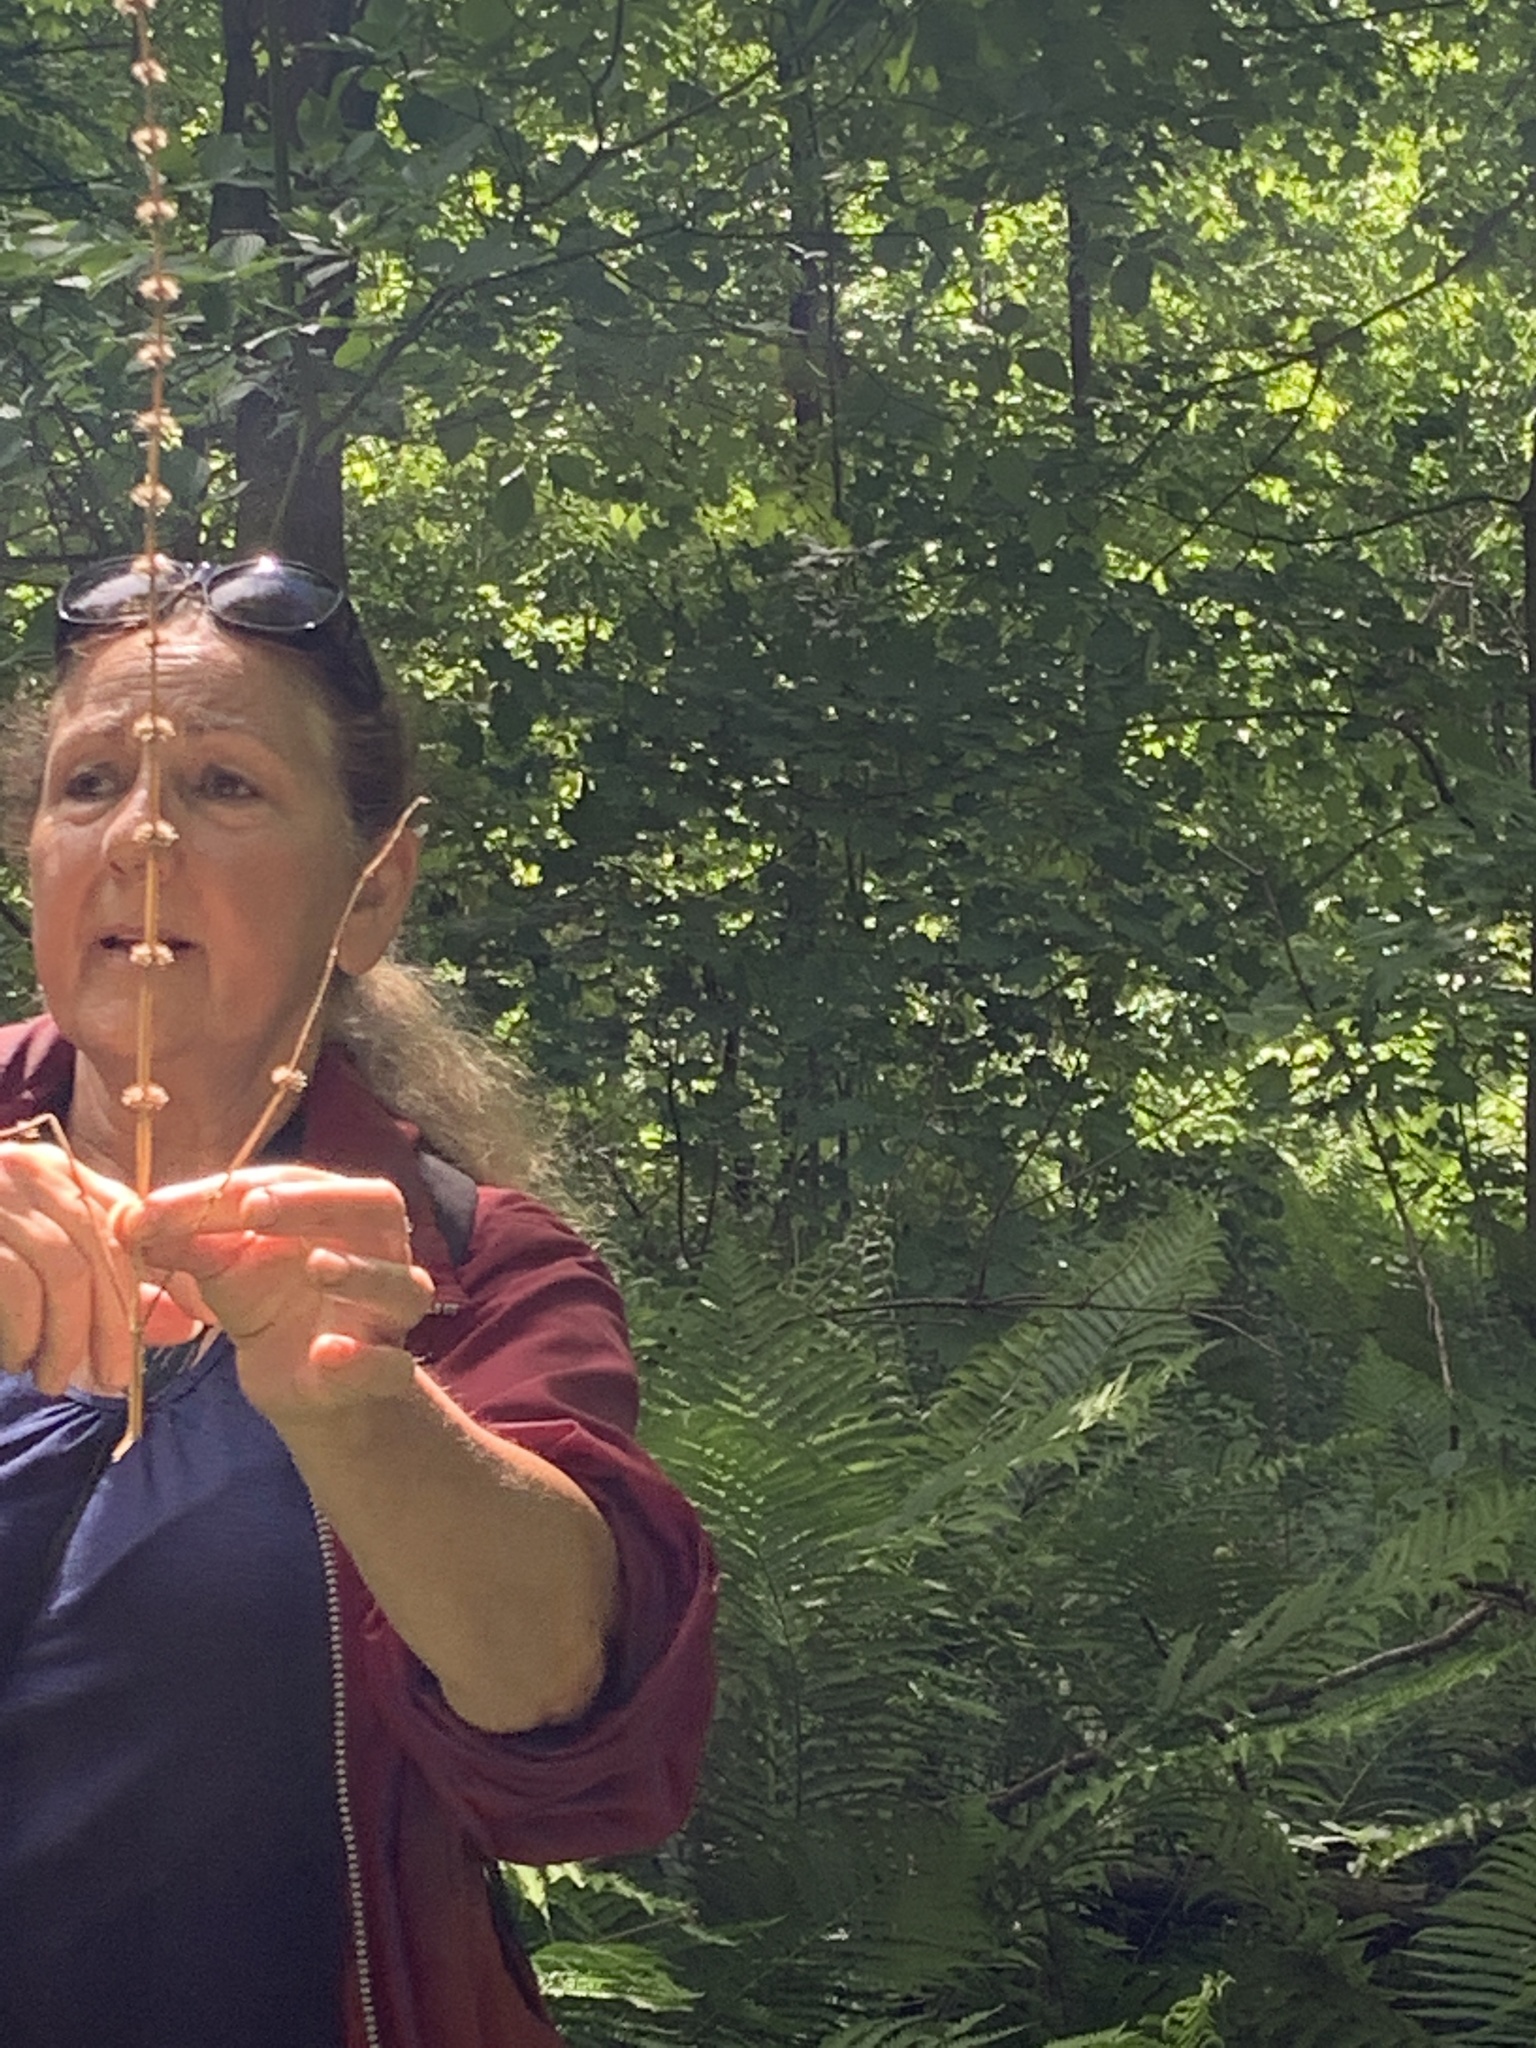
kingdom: Plantae
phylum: Tracheophyta
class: Magnoliopsida
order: Lamiales
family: Lamiaceae
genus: Leonurus
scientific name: Leonurus cardiaca
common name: Motherwort
